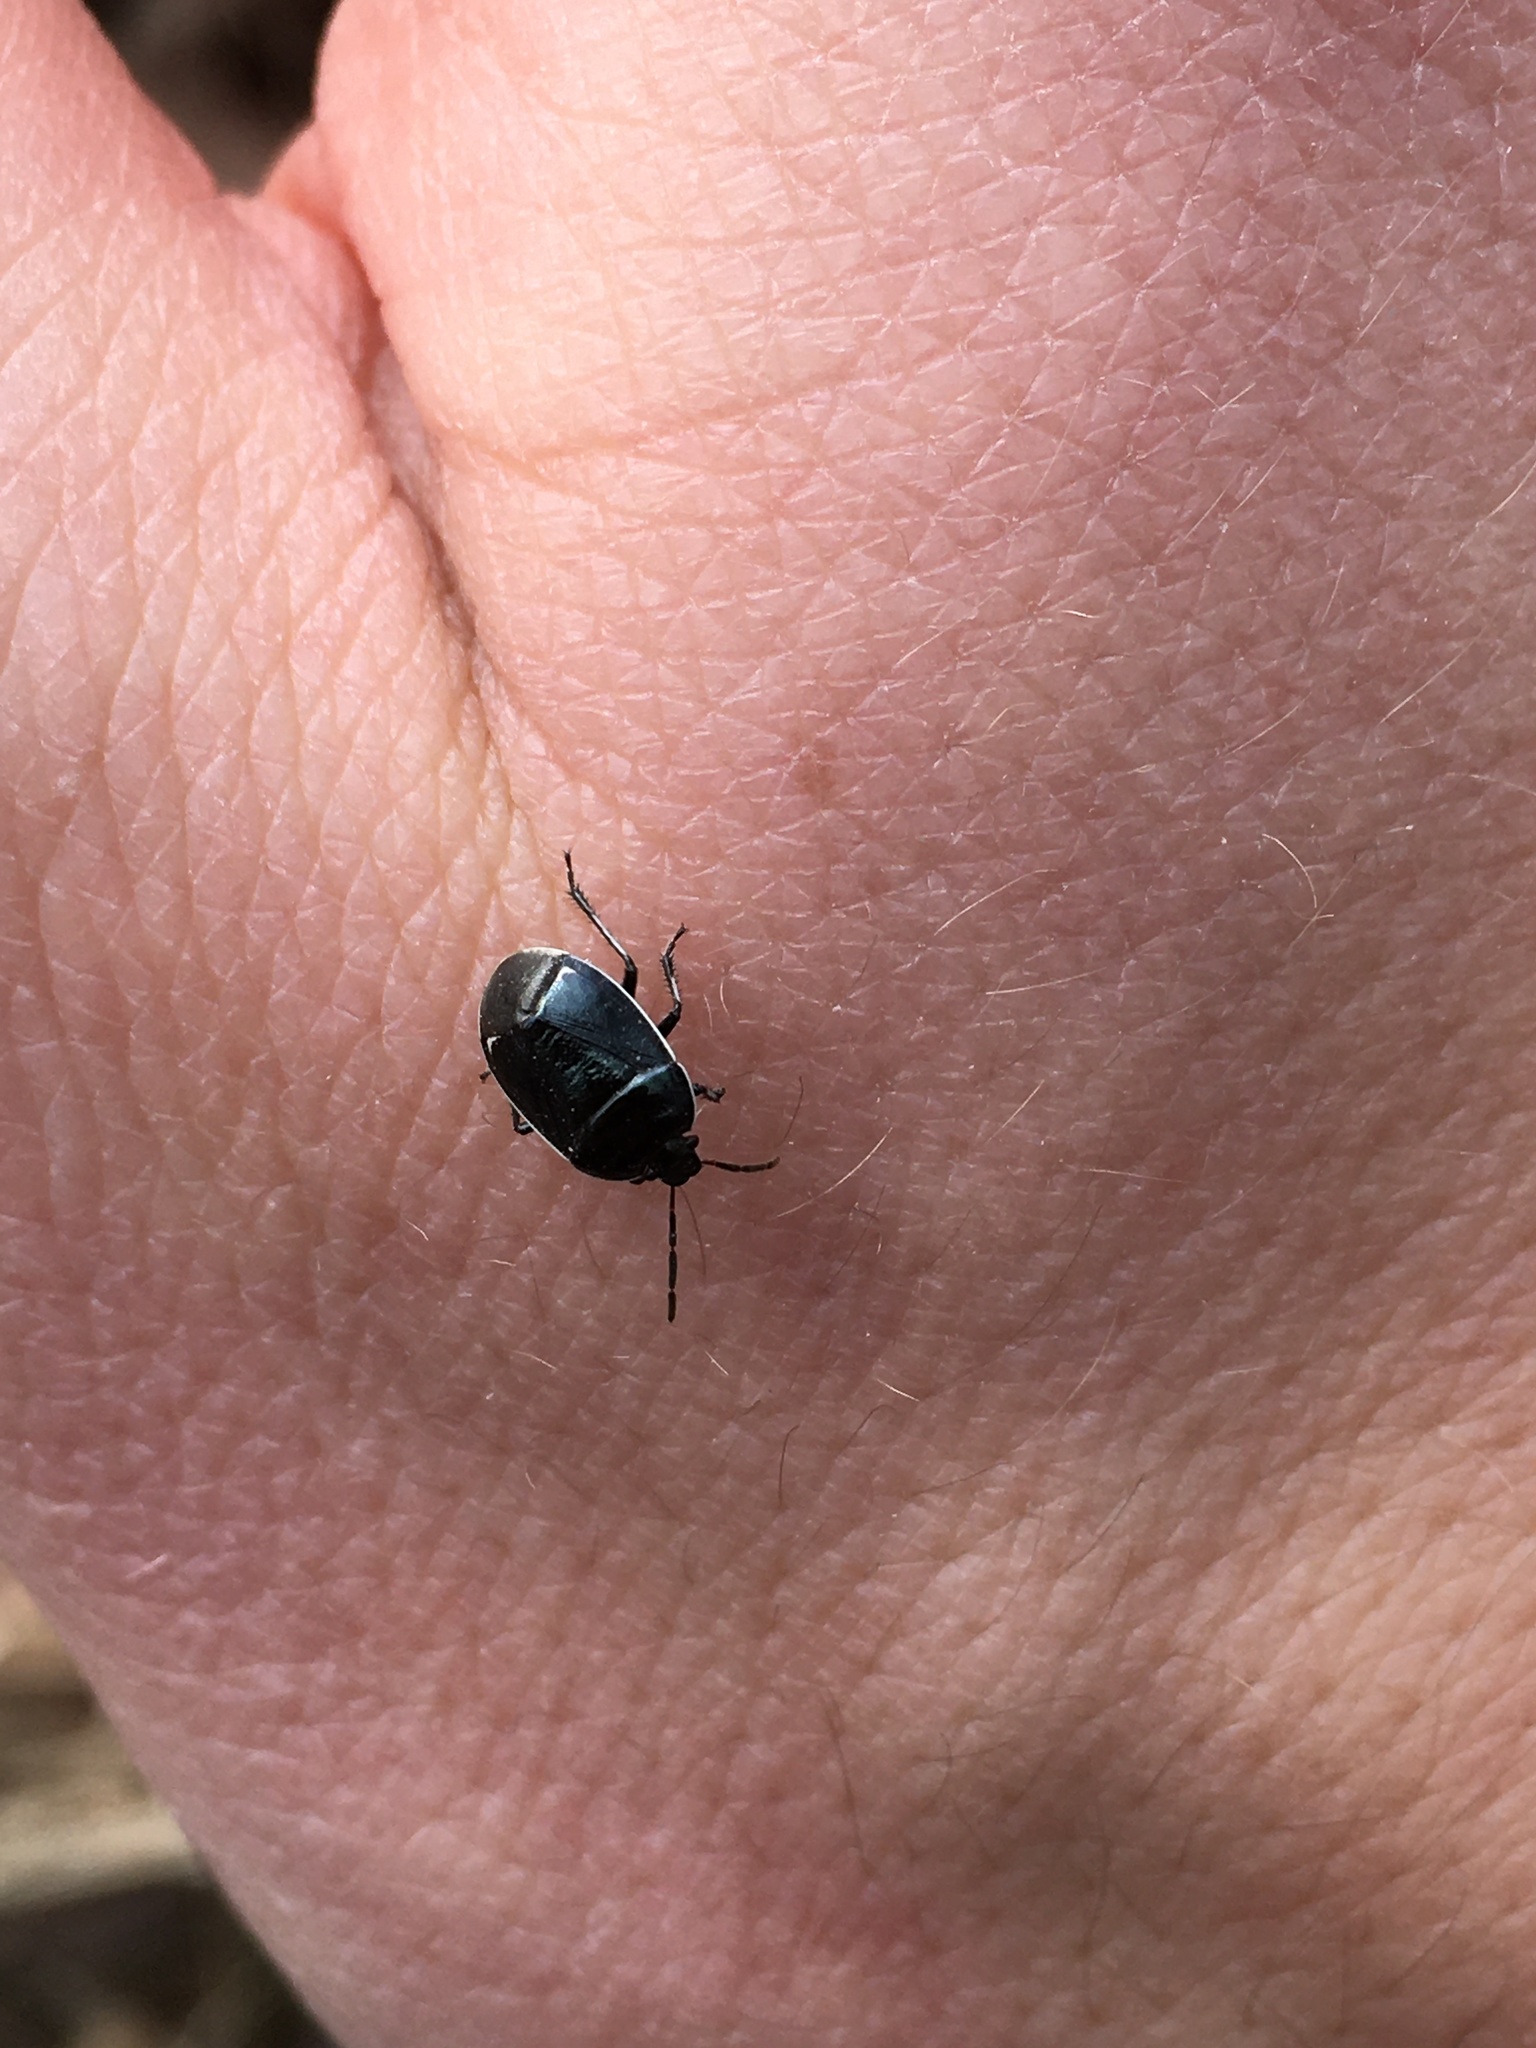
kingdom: Animalia
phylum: Arthropoda
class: Insecta
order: Hemiptera
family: Cydnidae
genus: Sehirus
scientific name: Sehirus cinctus
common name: White-margined burrower bug
